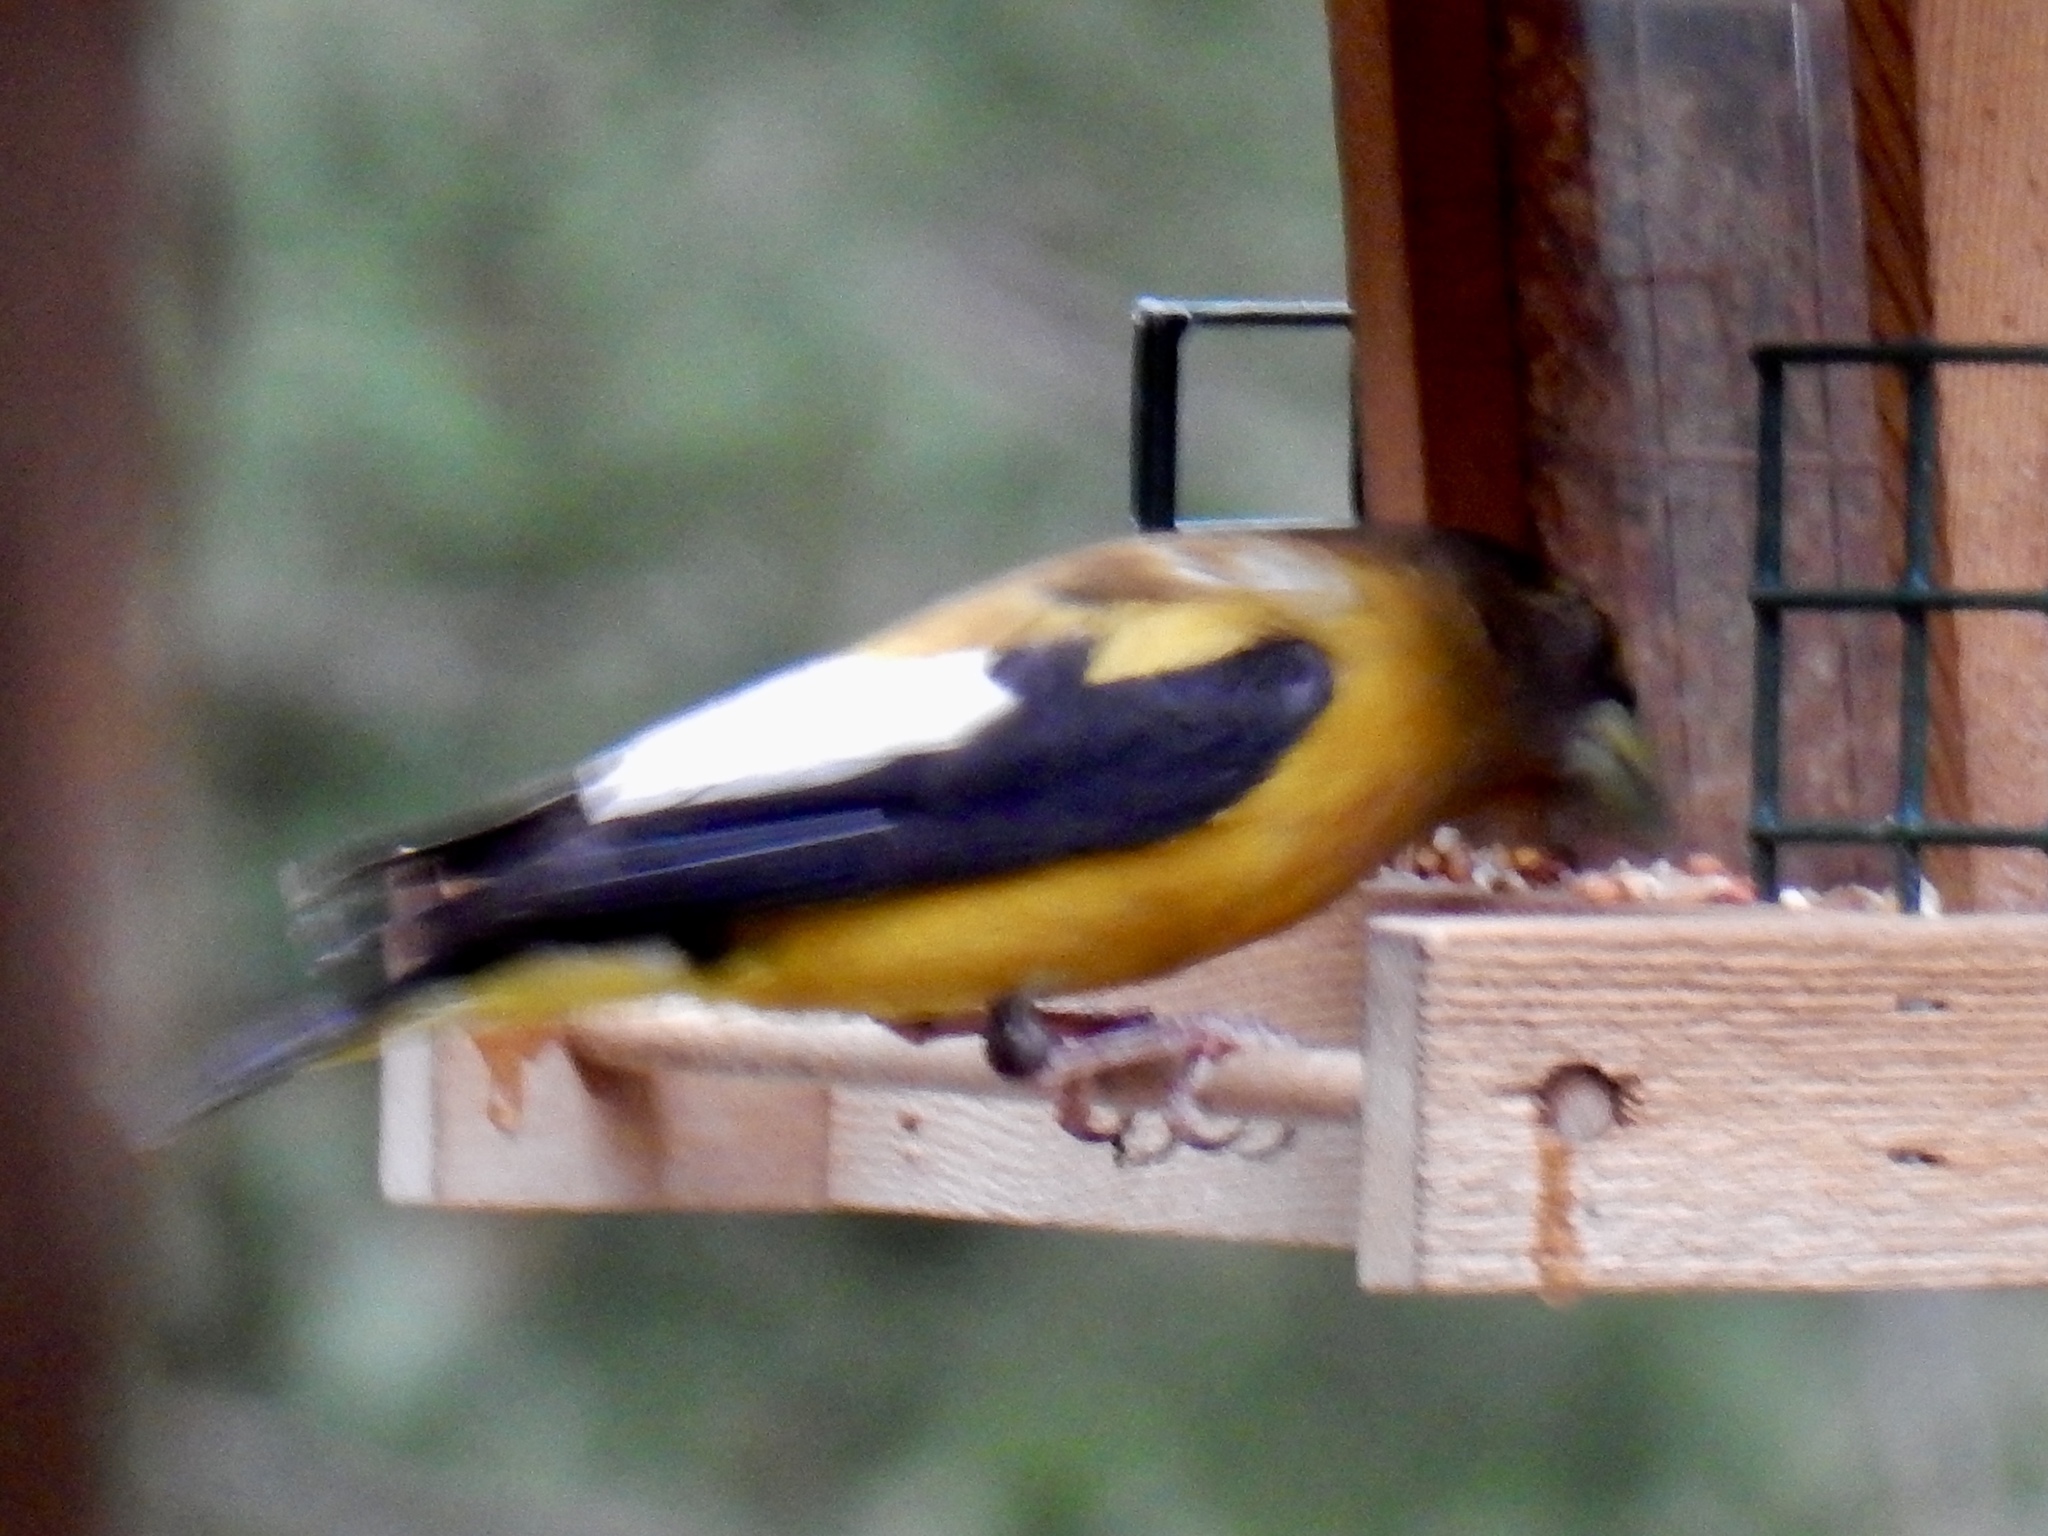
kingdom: Animalia
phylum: Chordata
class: Aves
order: Passeriformes
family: Fringillidae
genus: Hesperiphona
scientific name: Hesperiphona vespertina
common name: Evening grosbeak
